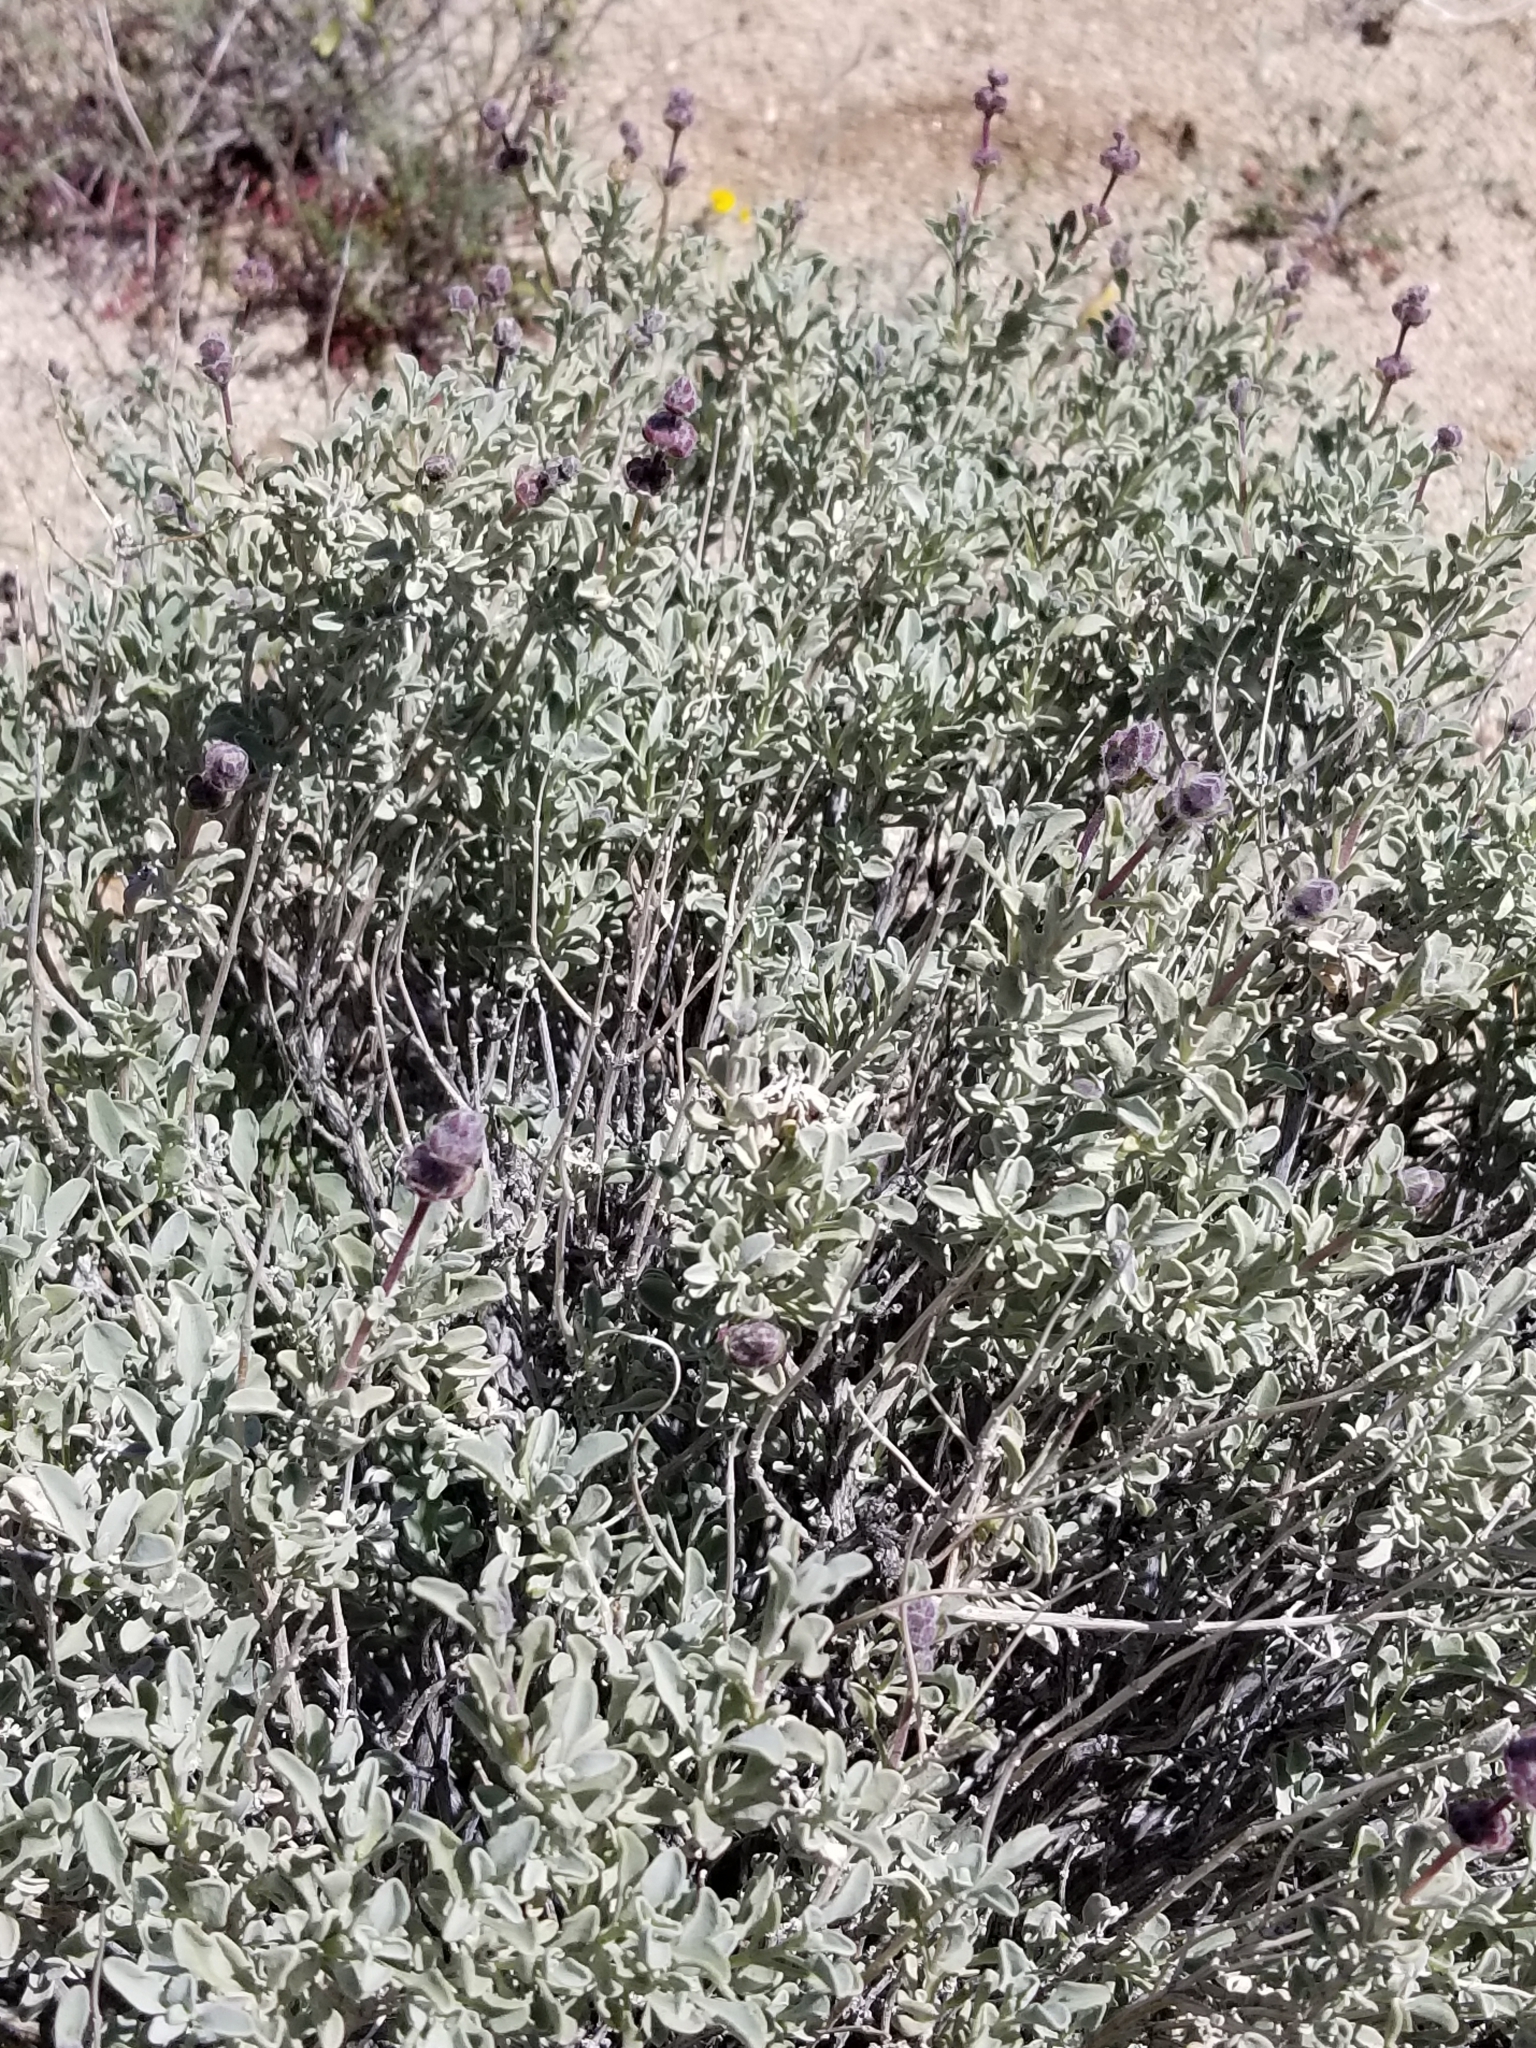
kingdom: Plantae
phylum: Tracheophyta
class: Magnoliopsida
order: Lamiales
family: Lamiaceae
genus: Salvia
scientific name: Salvia dorrii
